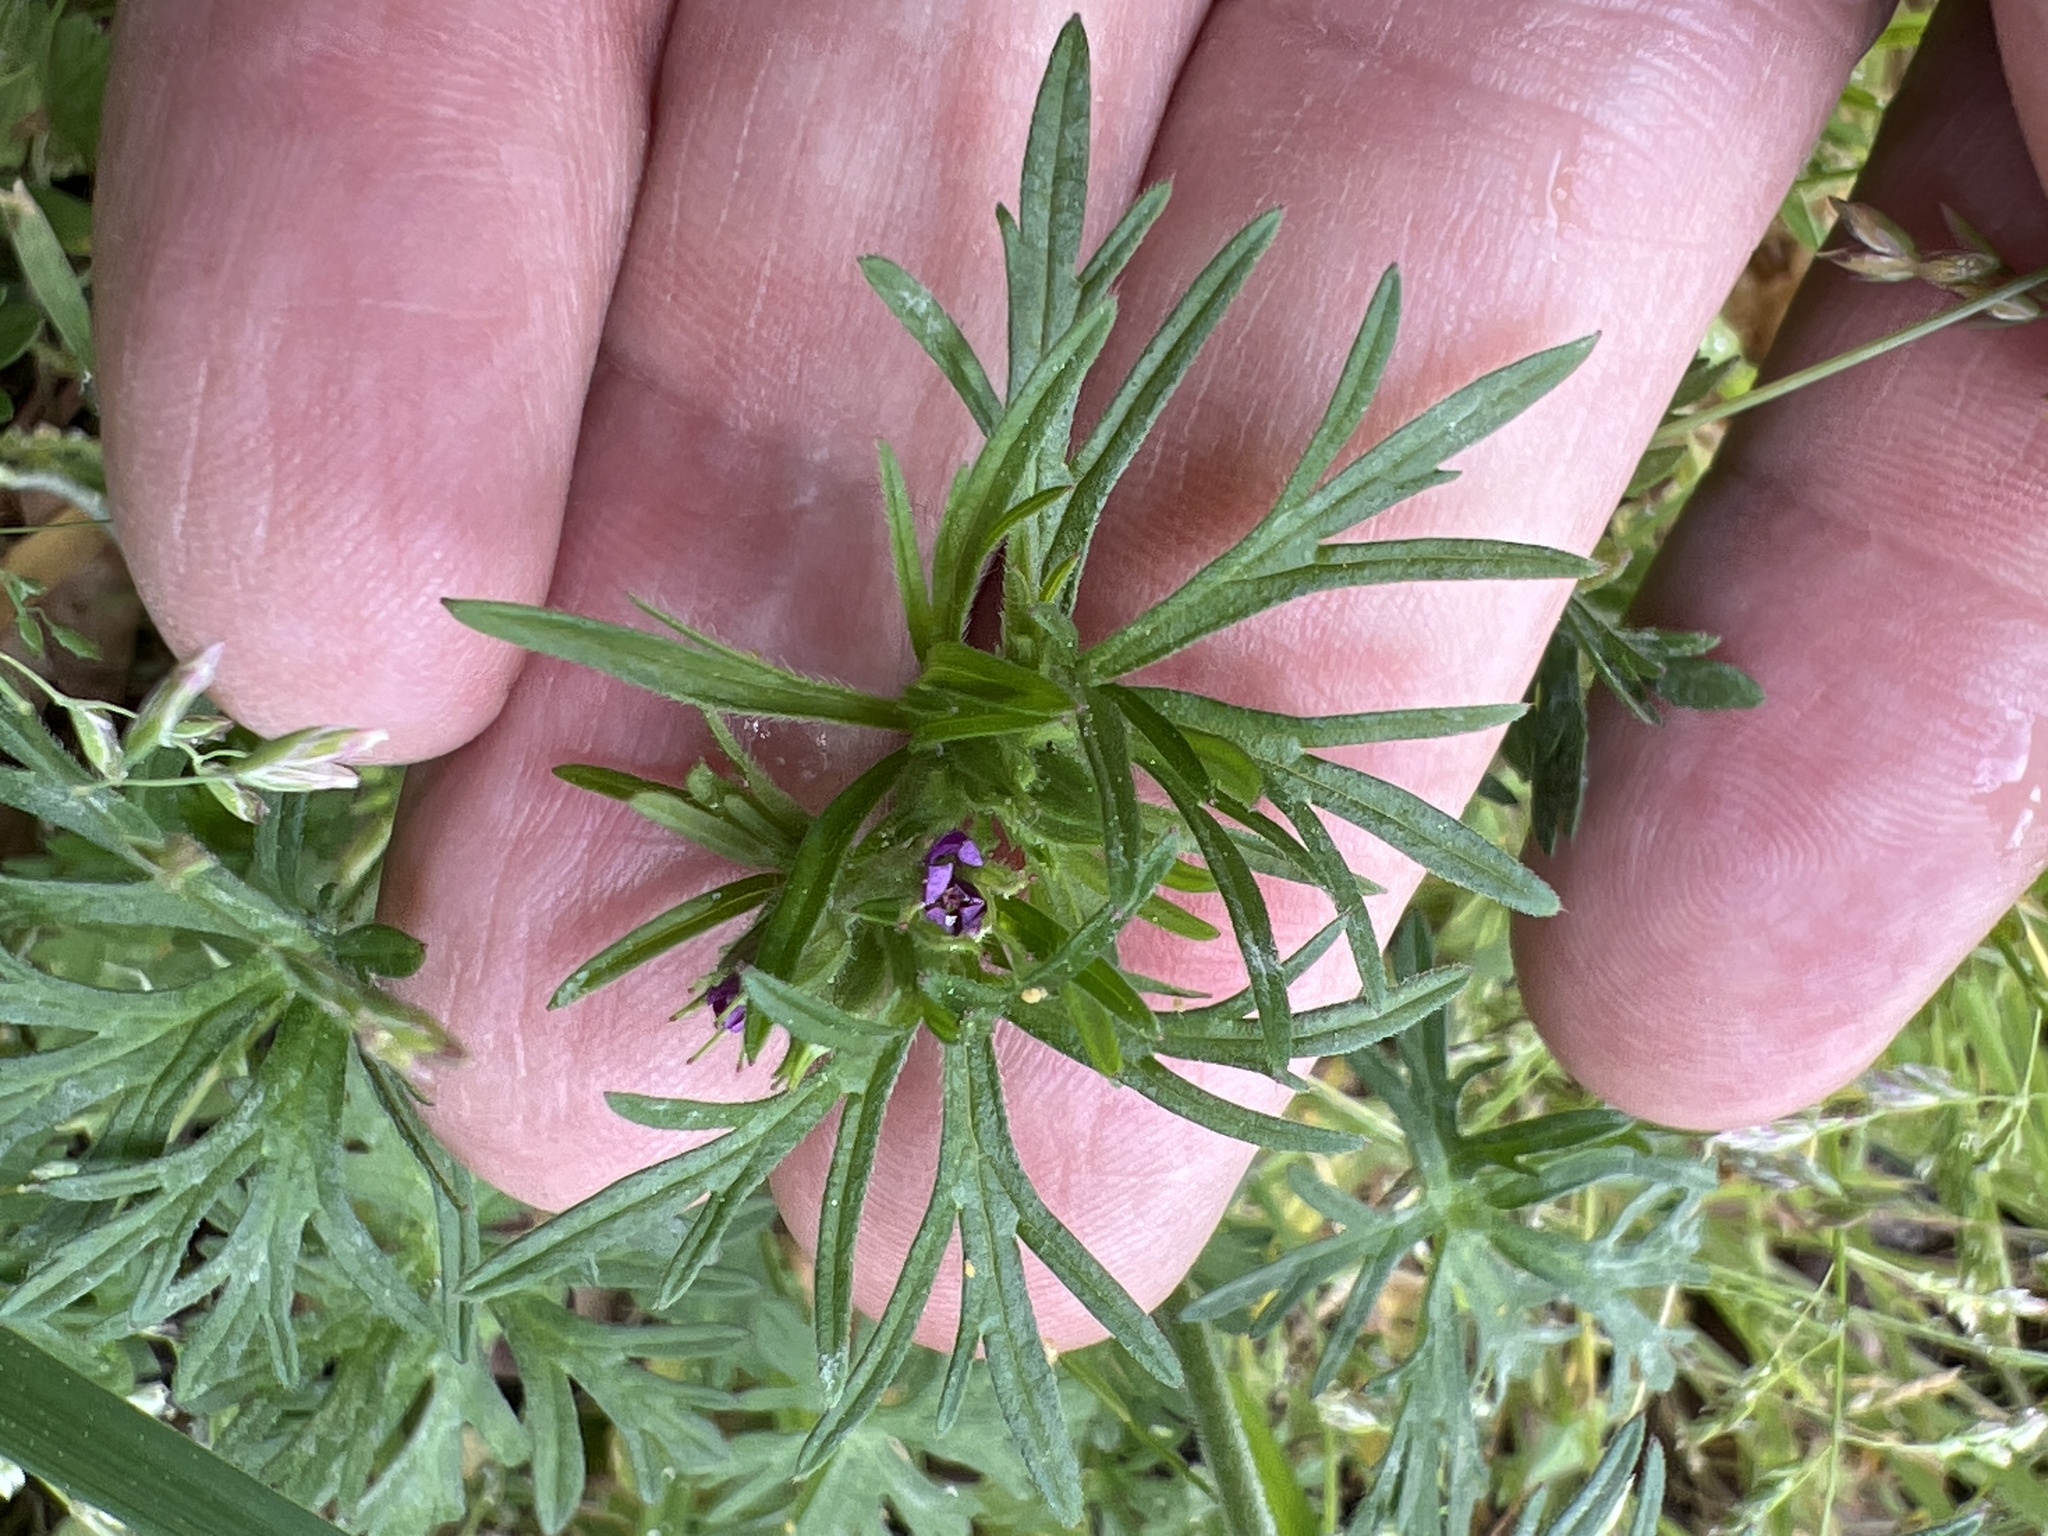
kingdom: Plantae
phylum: Tracheophyta
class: Magnoliopsida
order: Geraniales
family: Geraniaceae
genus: Geranium
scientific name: Geranium dissectum
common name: Cut-leaved crane's-bill
